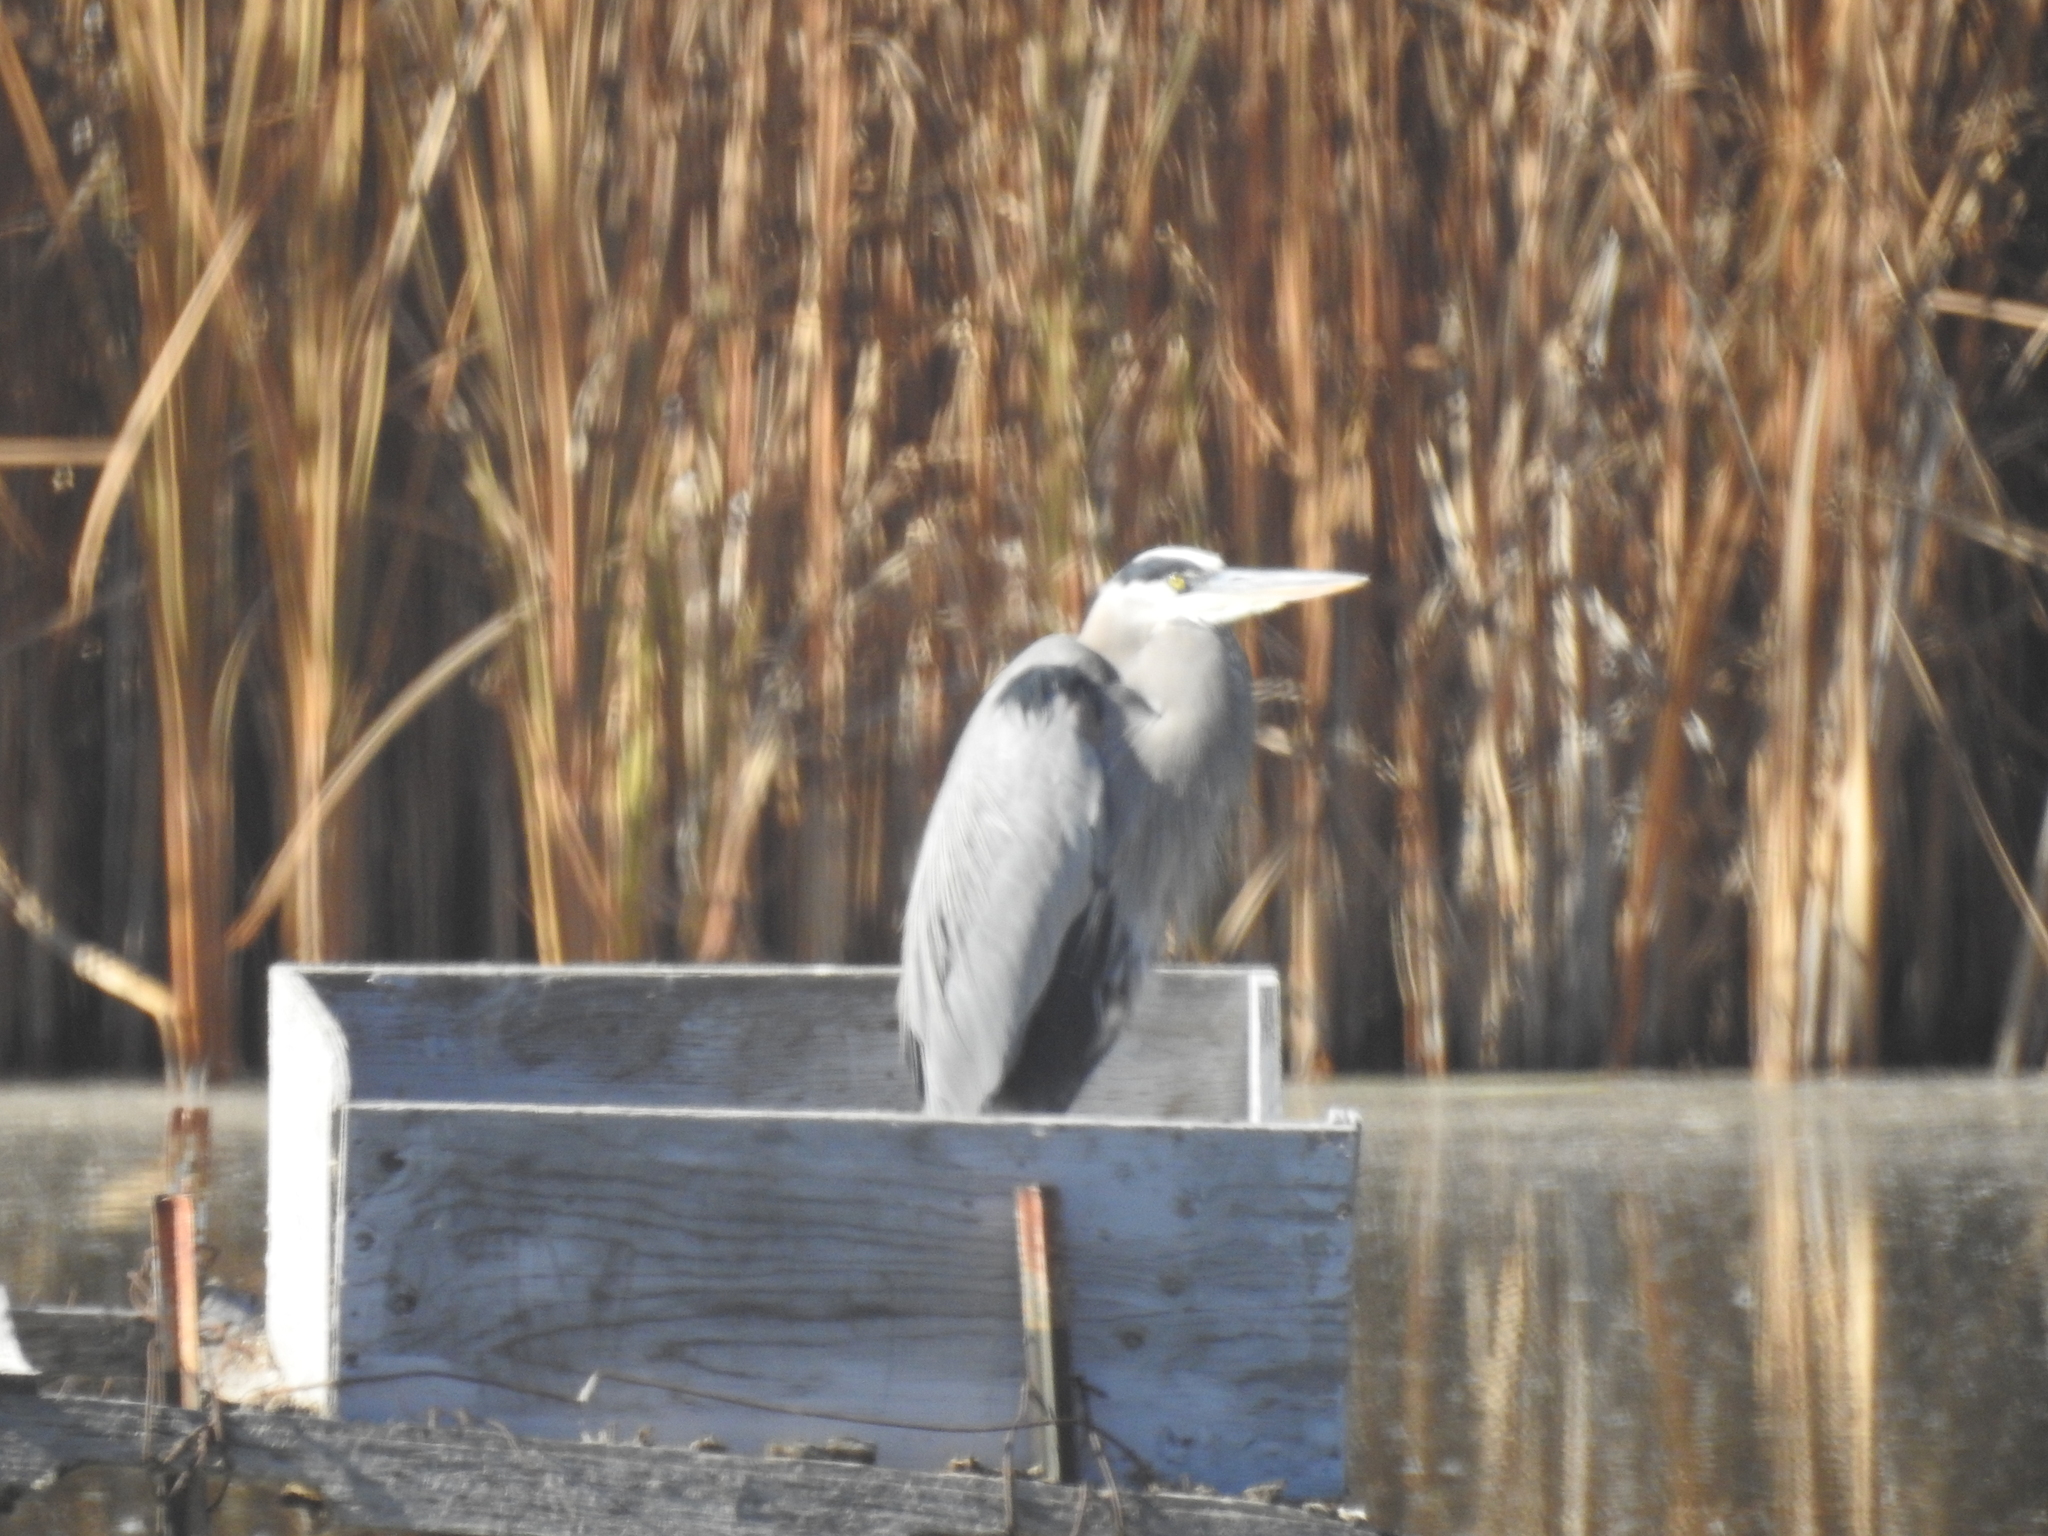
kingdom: Animalia
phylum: Chordata
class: Aves
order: Pelecaniformes
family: Ardeidae
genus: Ardea
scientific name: Ardea herodias
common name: Great blue heron
